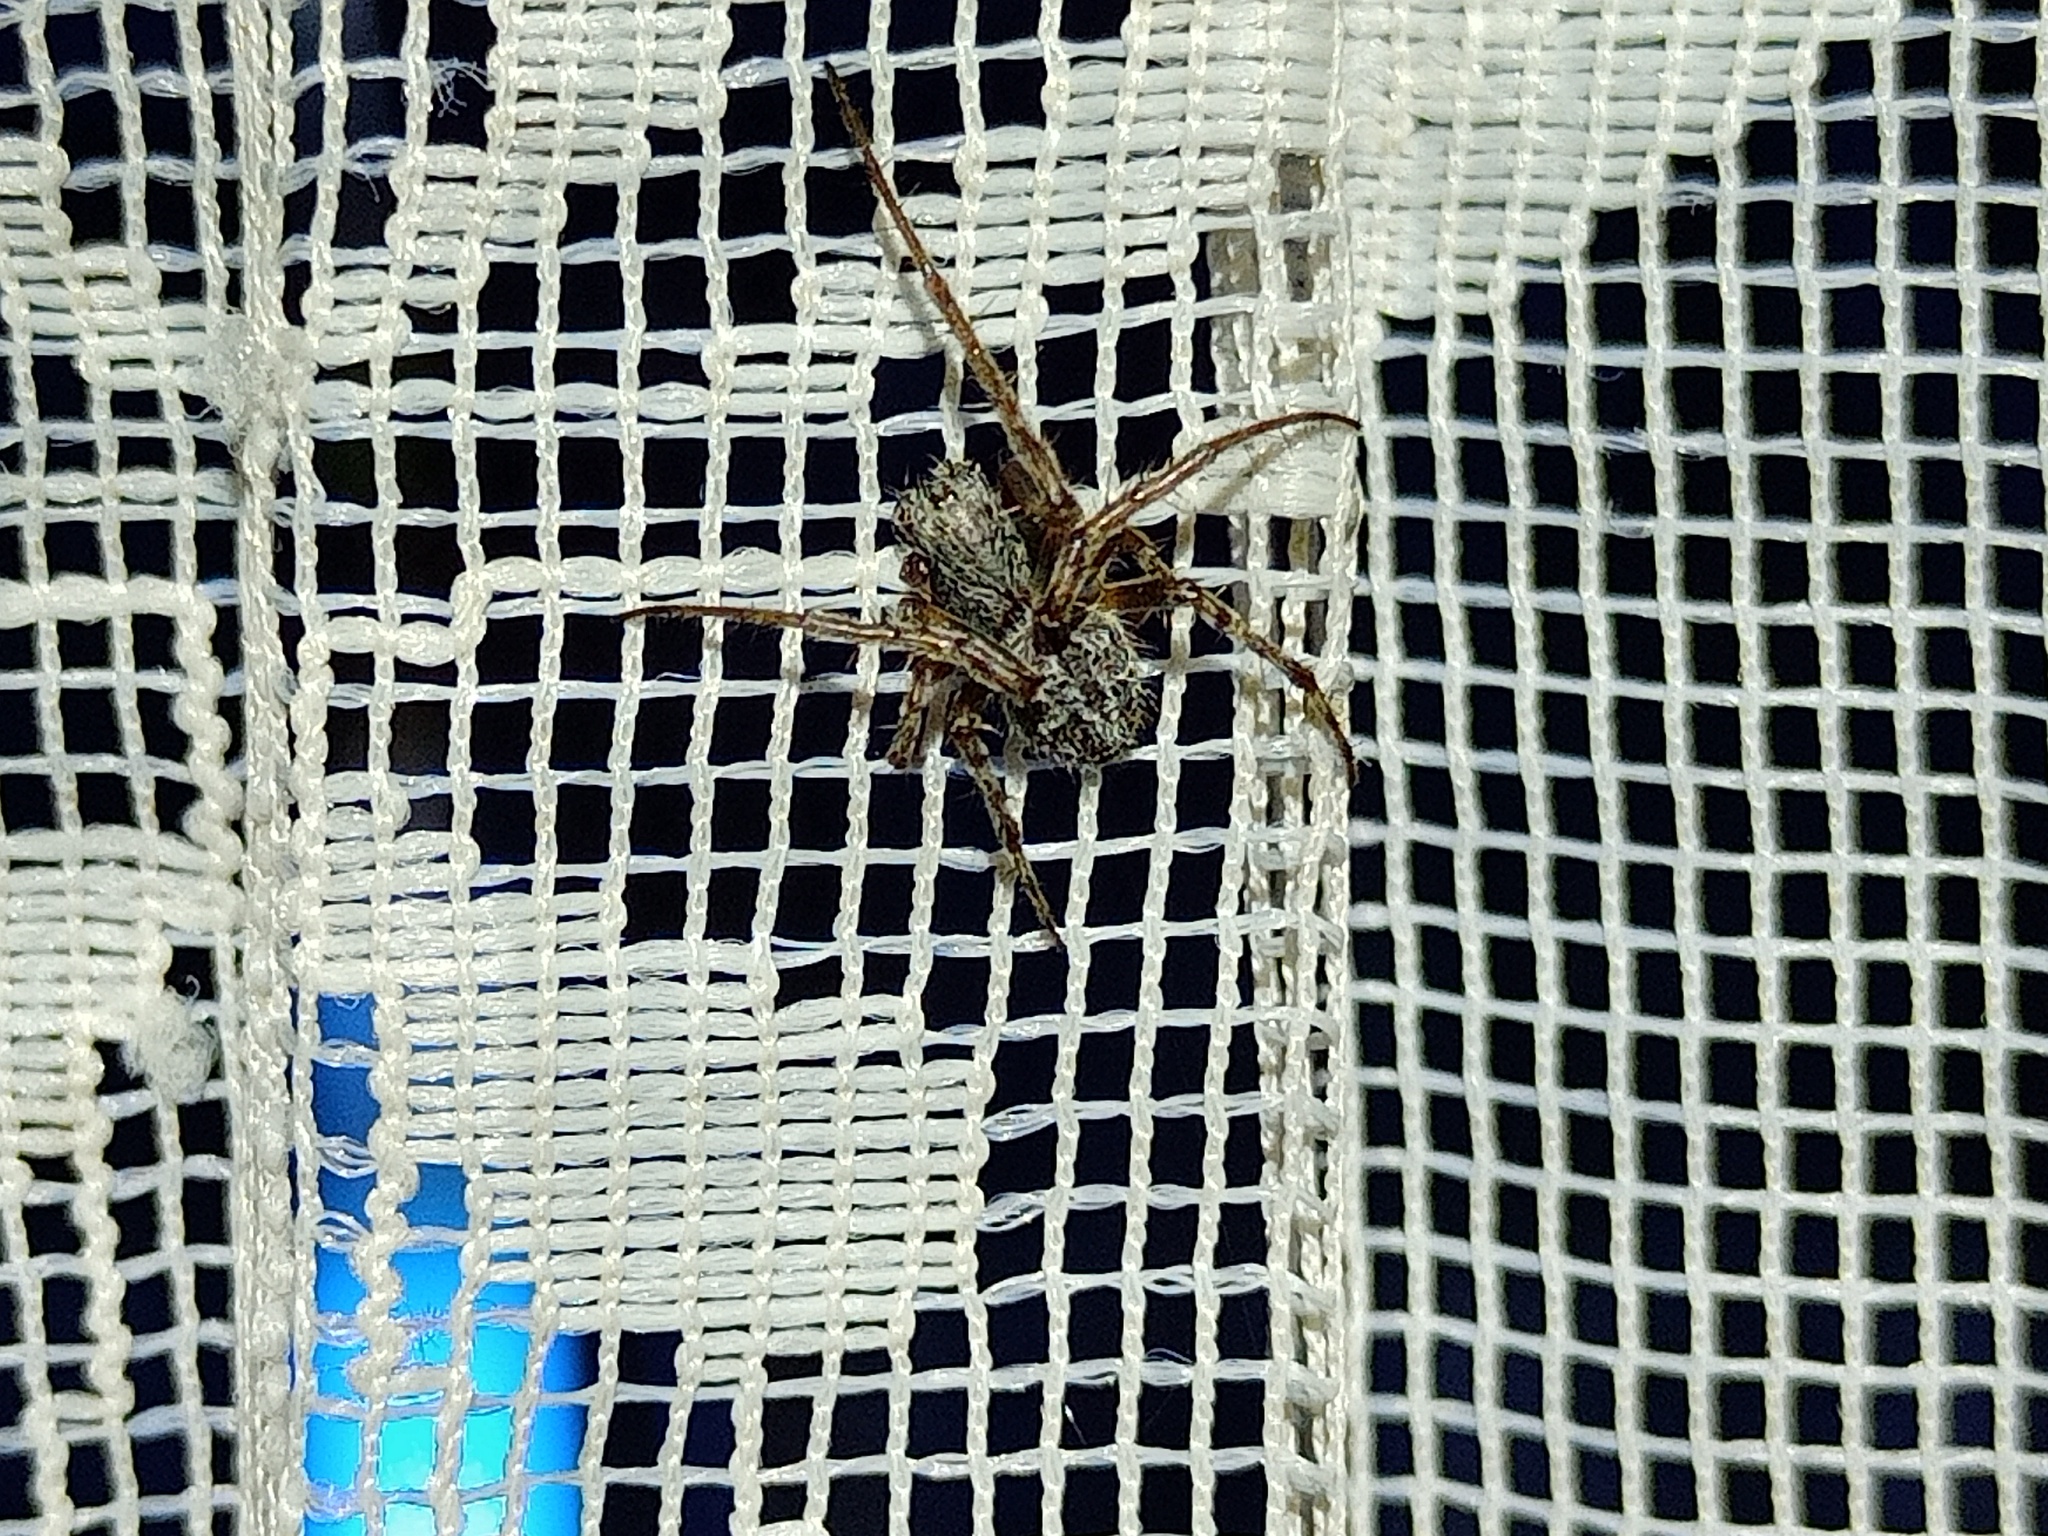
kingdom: Animalia
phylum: Arthropoda
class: Arachnida
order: Araneae
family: Araneidae
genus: Agalenatea
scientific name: Agalenatea redii
